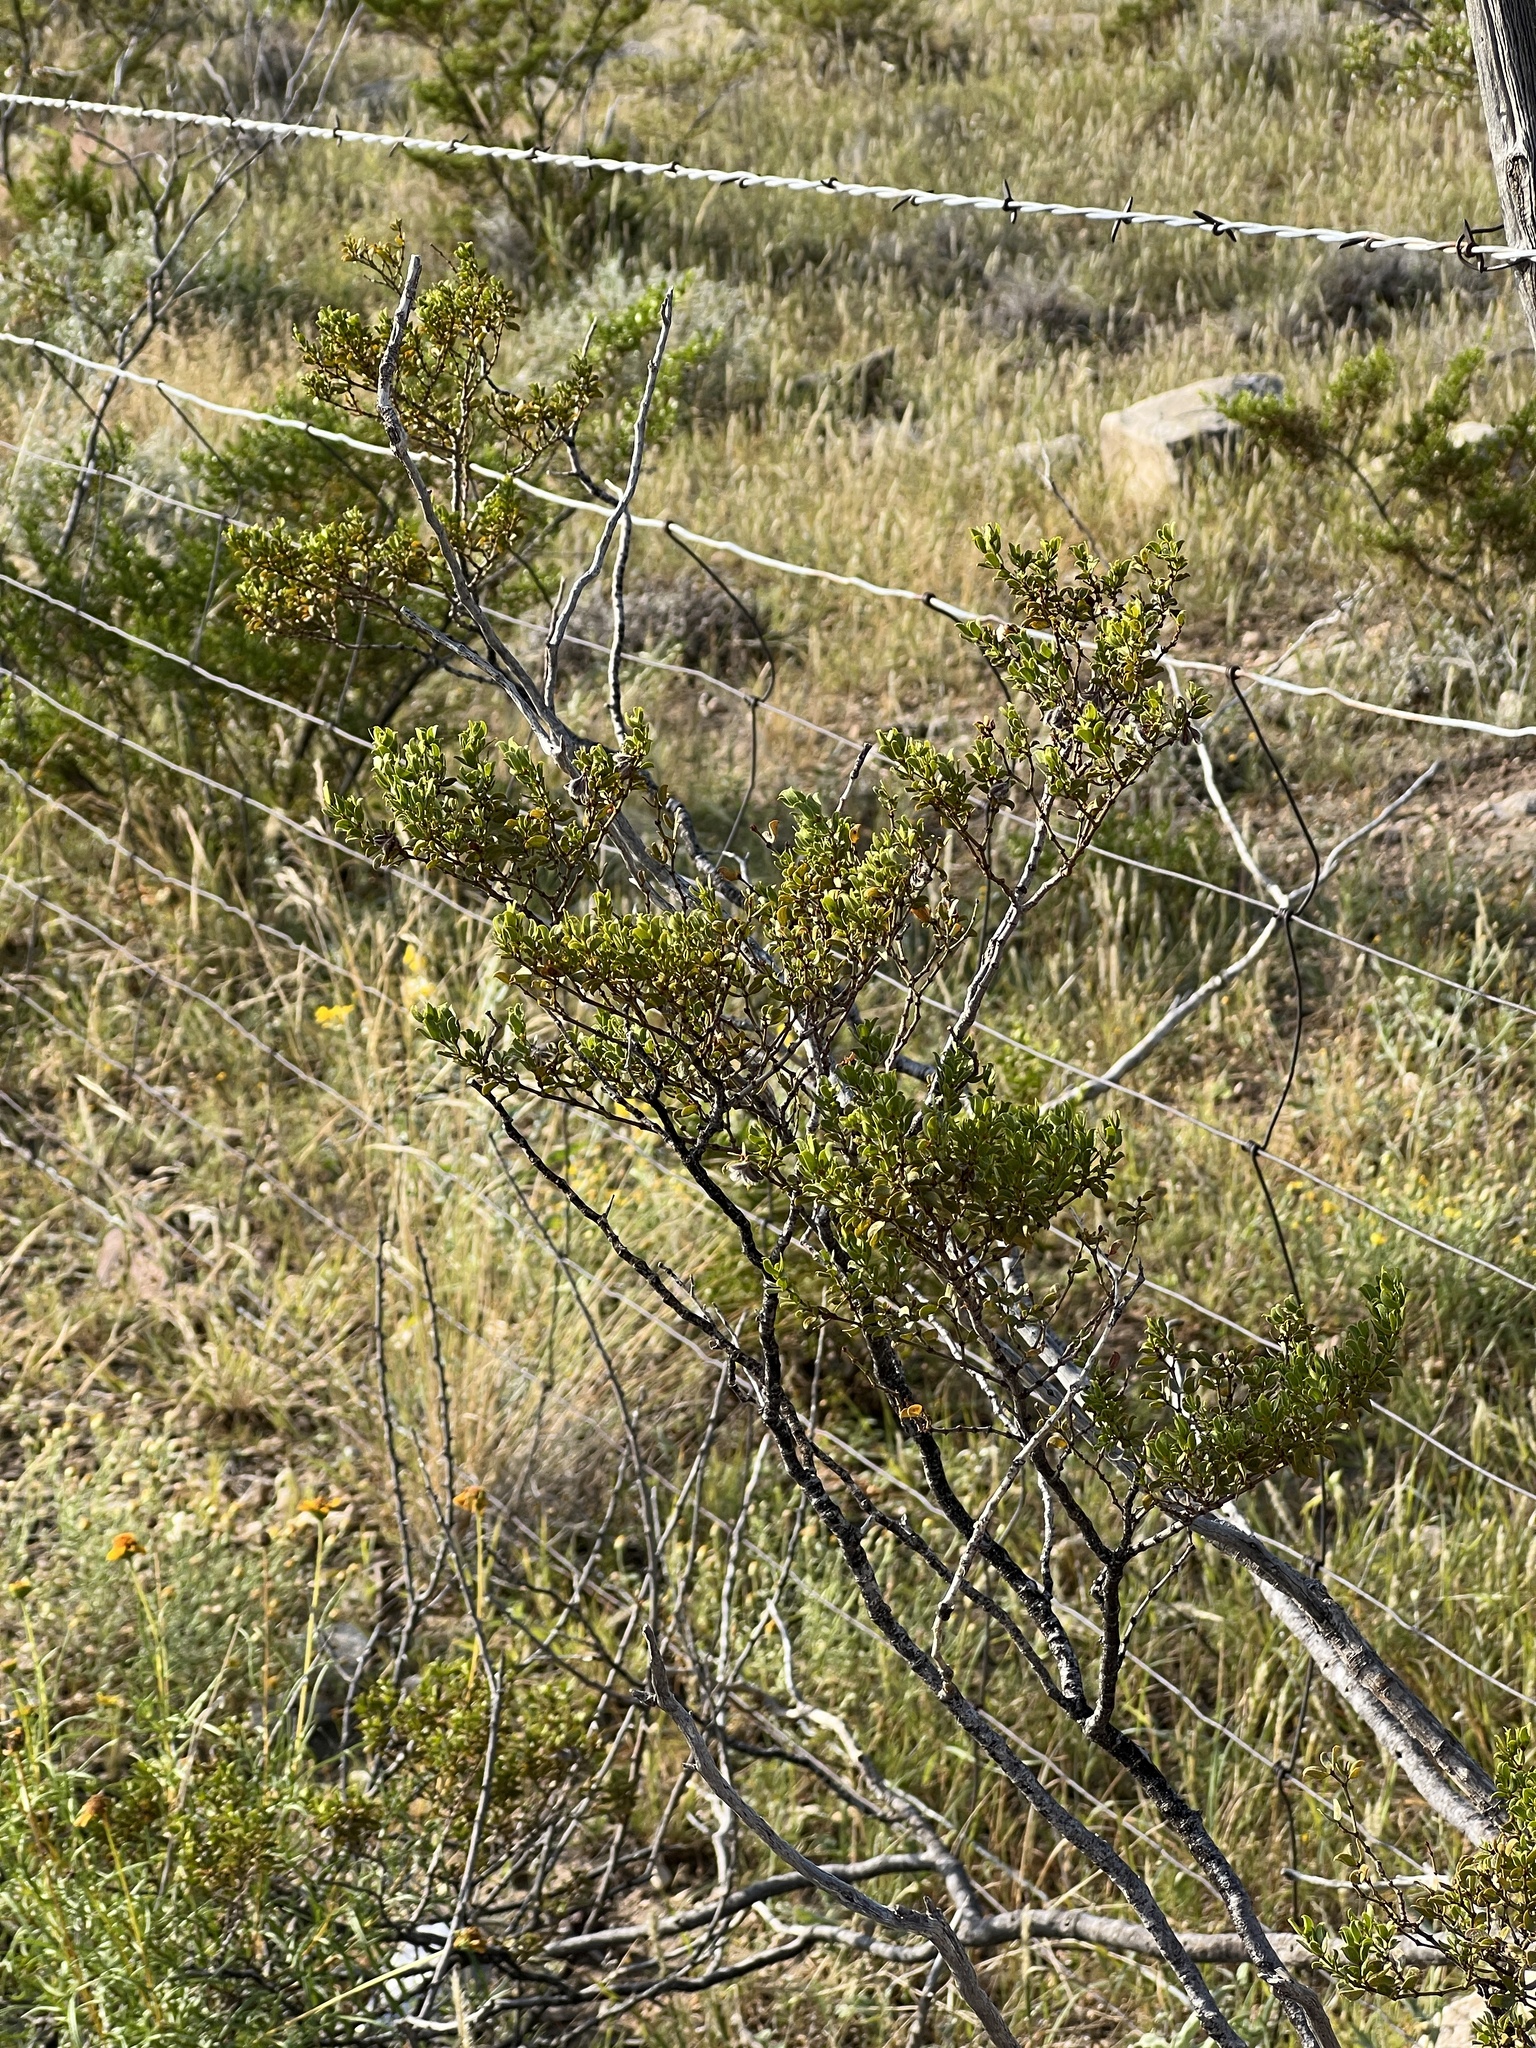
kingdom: Plantae
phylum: Tracheophyta
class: Magnoliopsida
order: Zygophyllales
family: Zygophyllaceae
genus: Larrea
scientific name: Larrea tridentata
